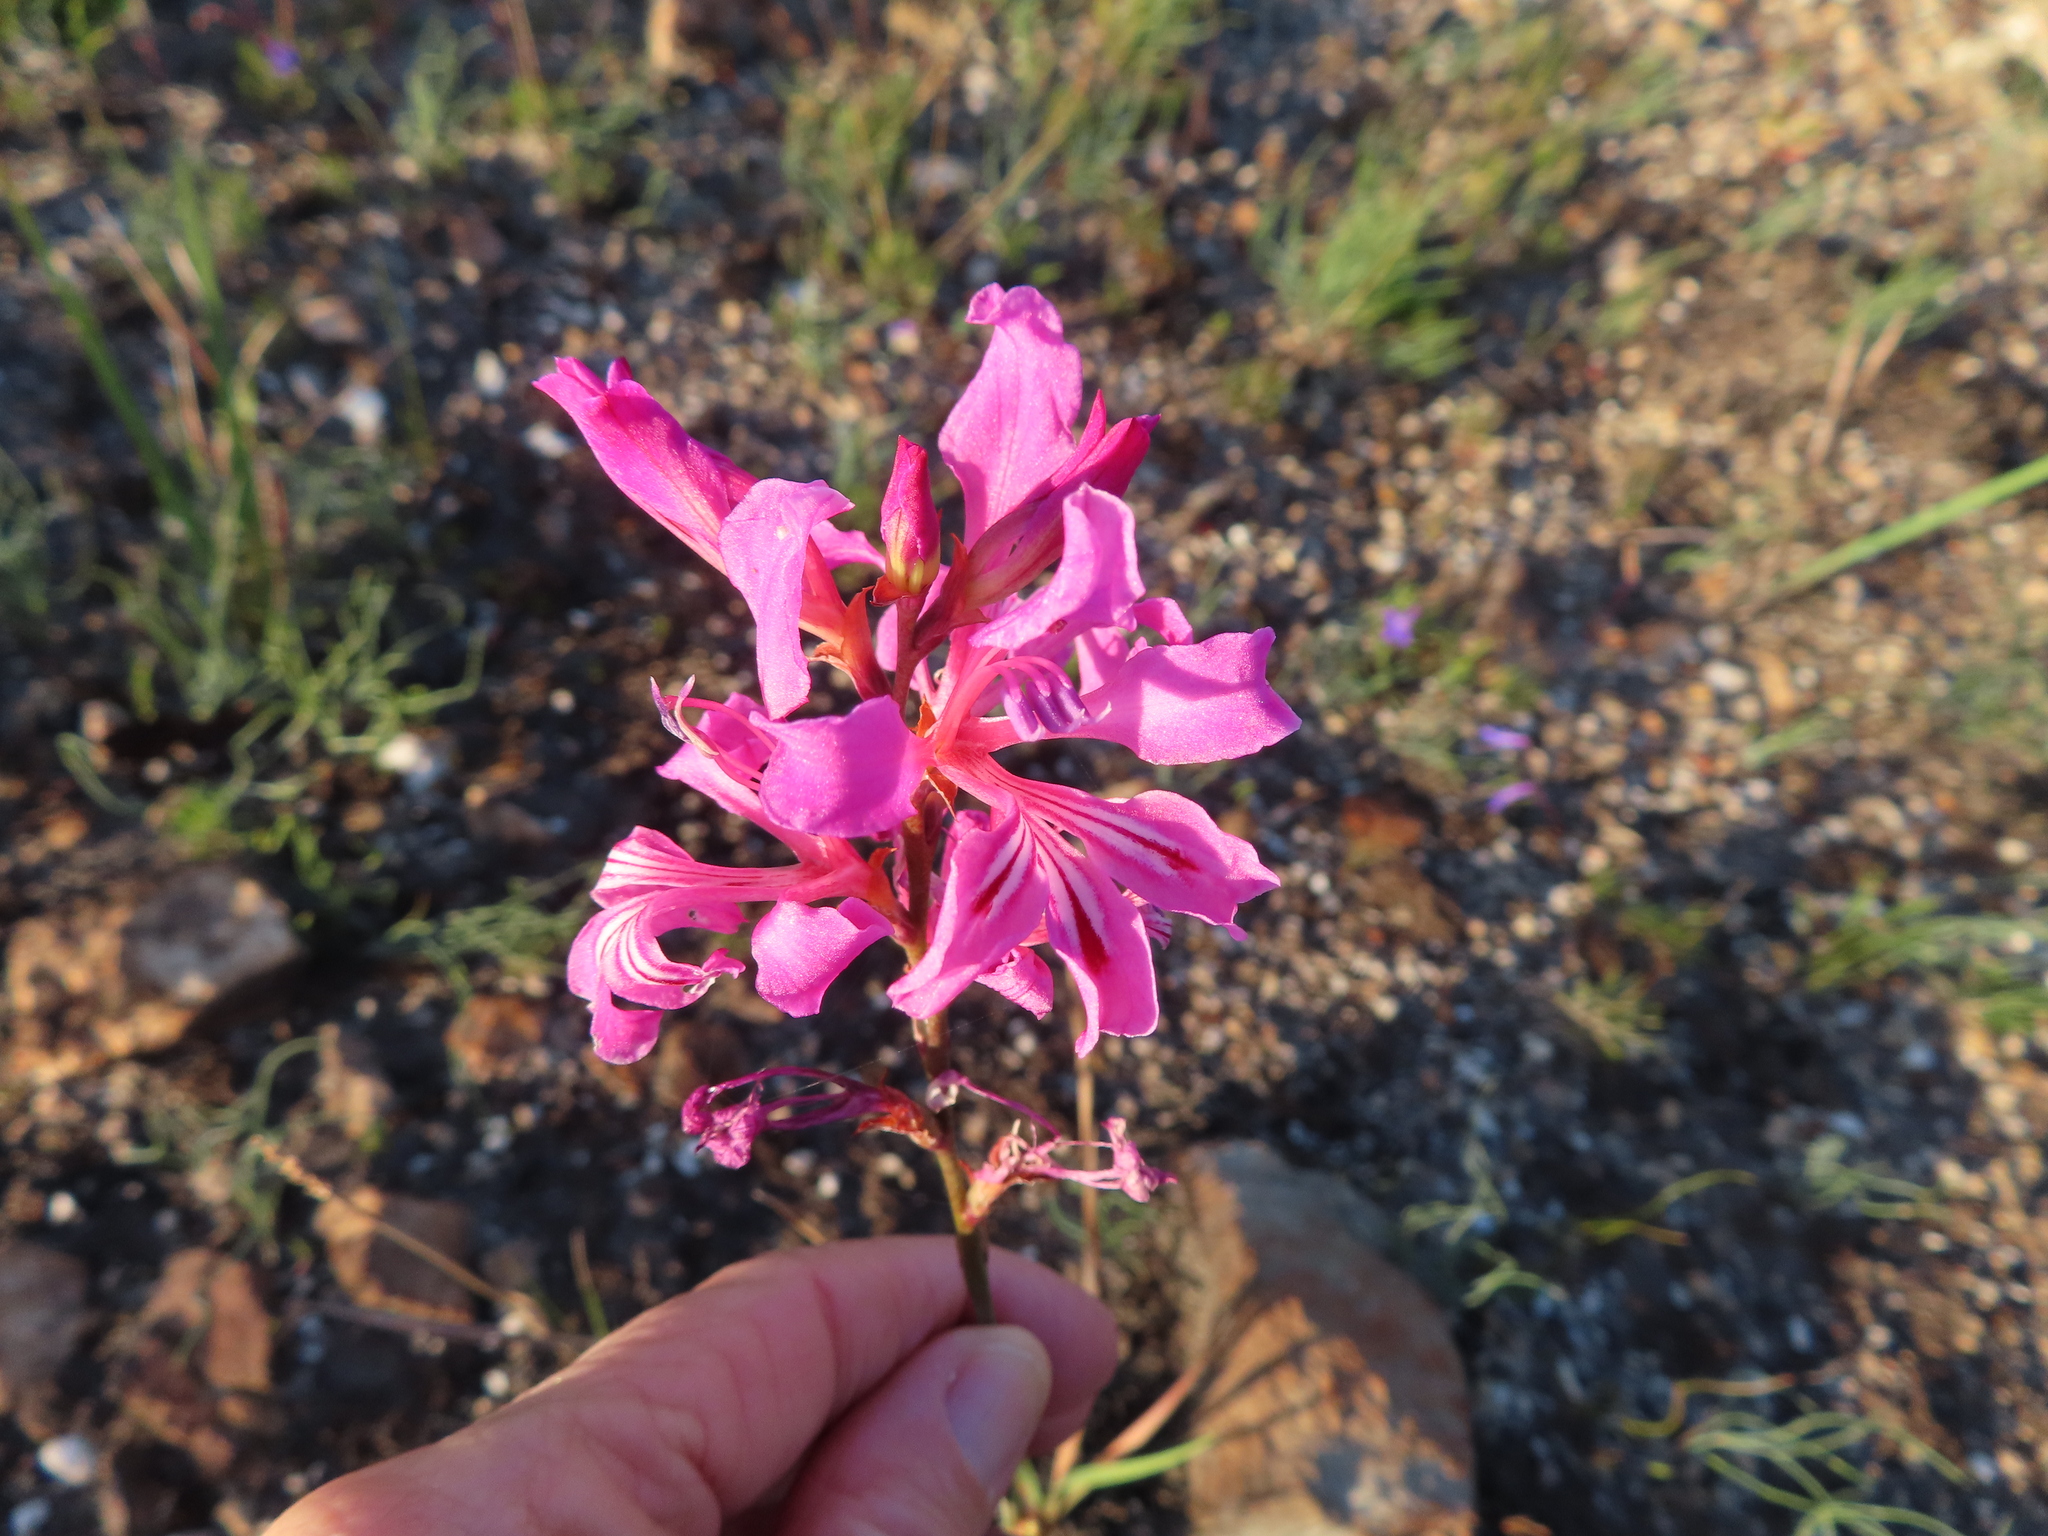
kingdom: Plantae
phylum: Tracheophyta
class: Liliopsida
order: Asparagales
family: Iridaceae
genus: Tritoniopsis
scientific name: Tritoniopsis lata
